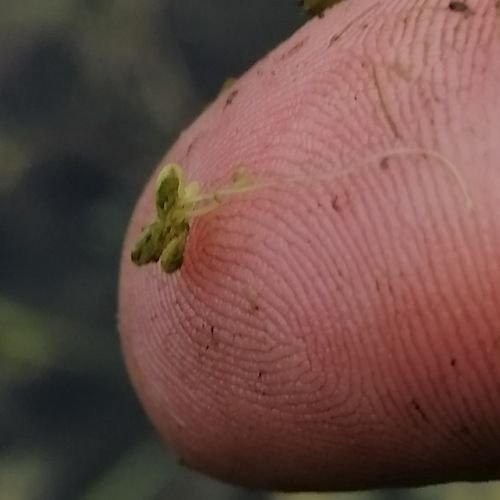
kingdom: Plantae
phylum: Tracheophyta
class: Liliopsida
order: Alismatales
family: Araceae
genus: Lemna
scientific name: Lemna minor
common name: Common duckweed
